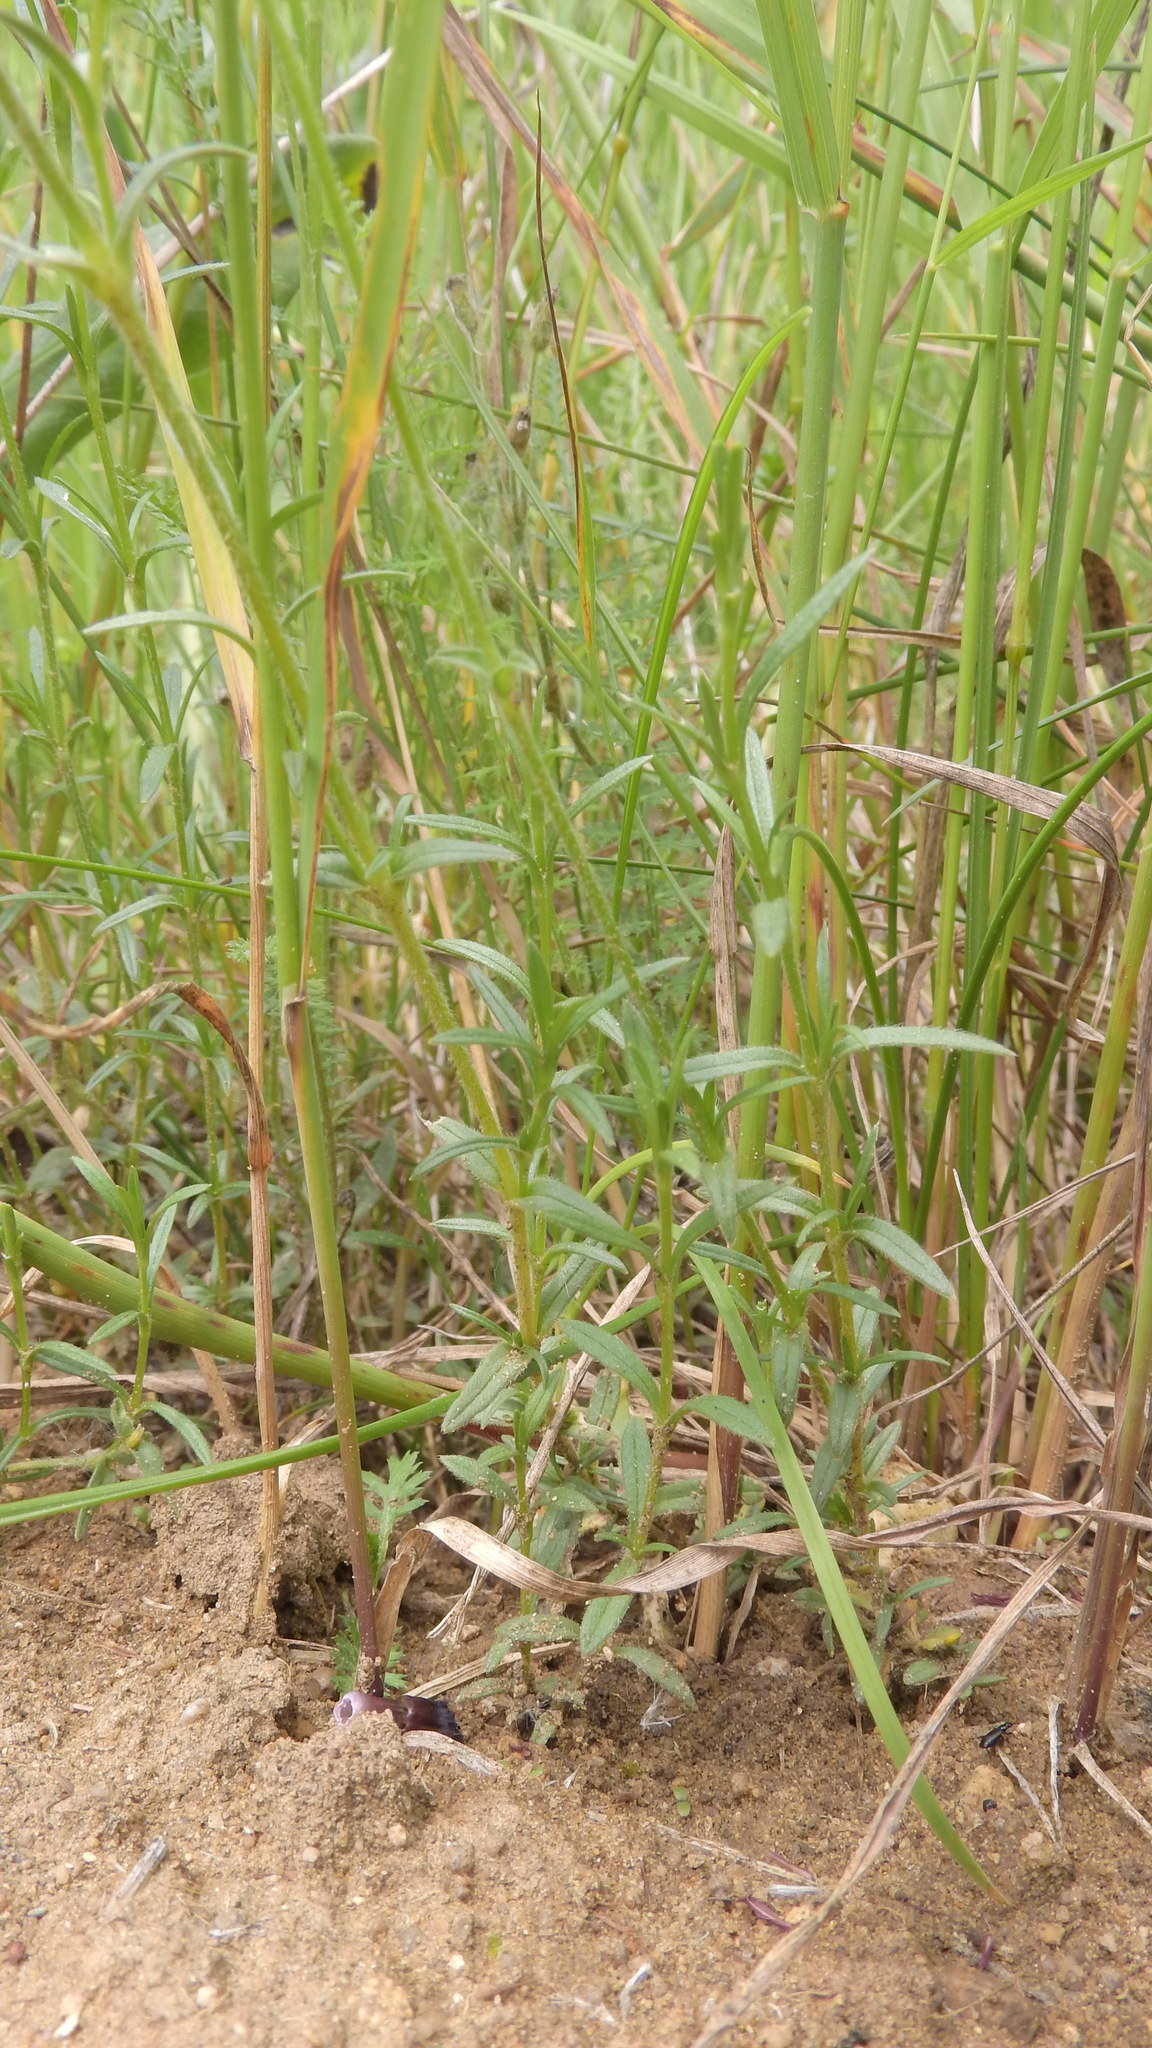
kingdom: Plantae
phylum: Tracheophyta
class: Magnoliopsida
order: Caryophyllales
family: Caryophyllaceae
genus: Cerastium
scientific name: Cerastium arvense
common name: Field mouse-ear
